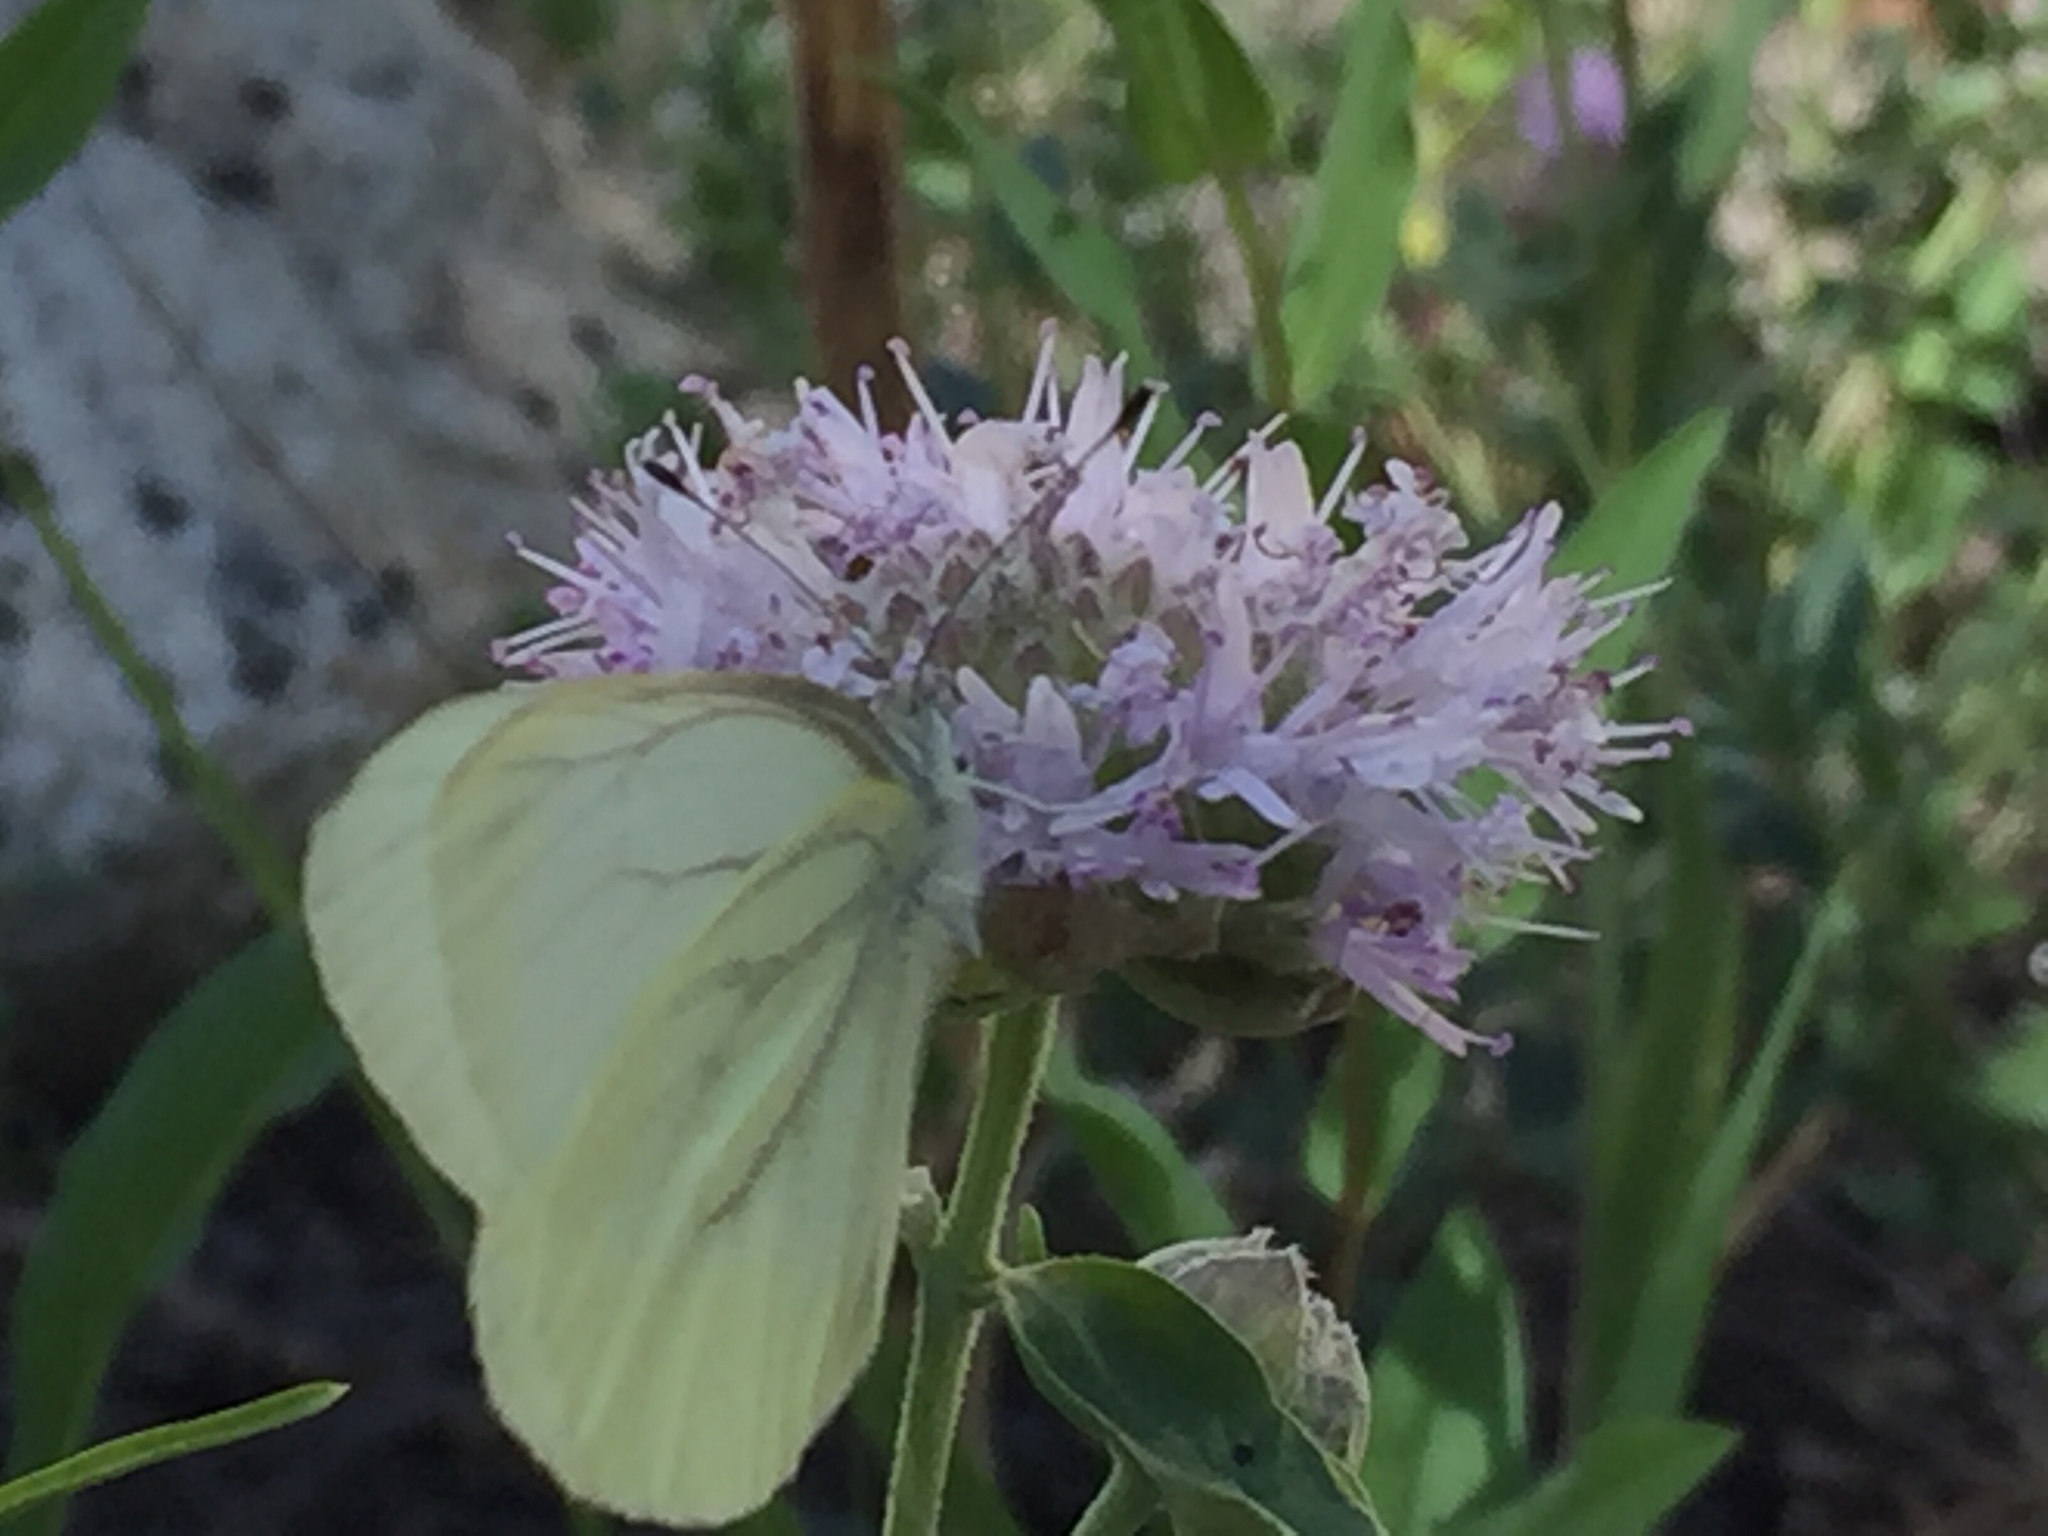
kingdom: Animalia
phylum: Arthropoda
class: Insecta
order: Lepidoptera
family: Pieridae
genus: Pieris
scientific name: Pieris marginalis
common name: Margined white
